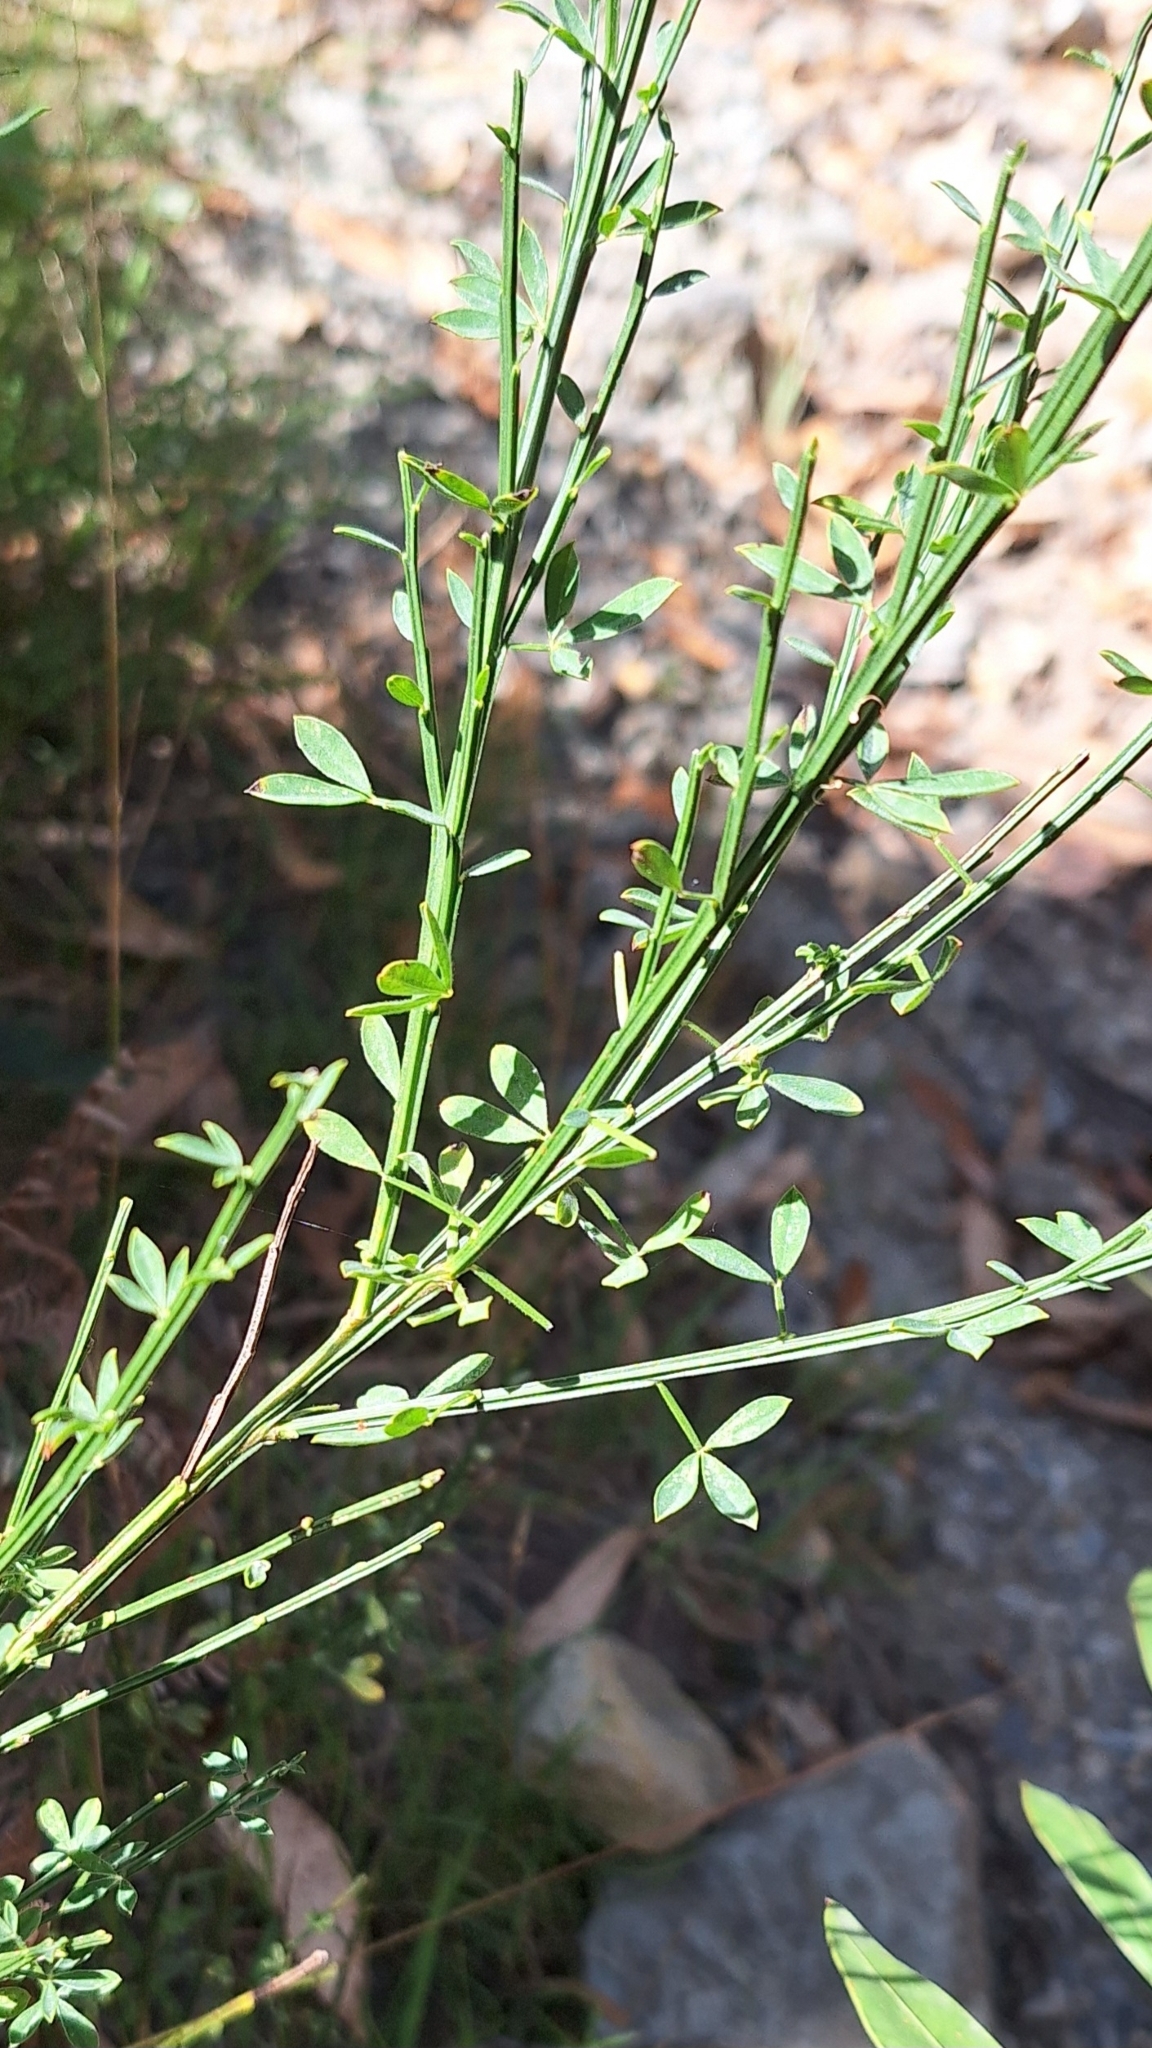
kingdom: Plantae
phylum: Tracheophyta
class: Magnoliopsida
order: Fabales
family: Fabaceae
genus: Cytisus
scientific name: Cytisus scoparius
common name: Scotch broom
